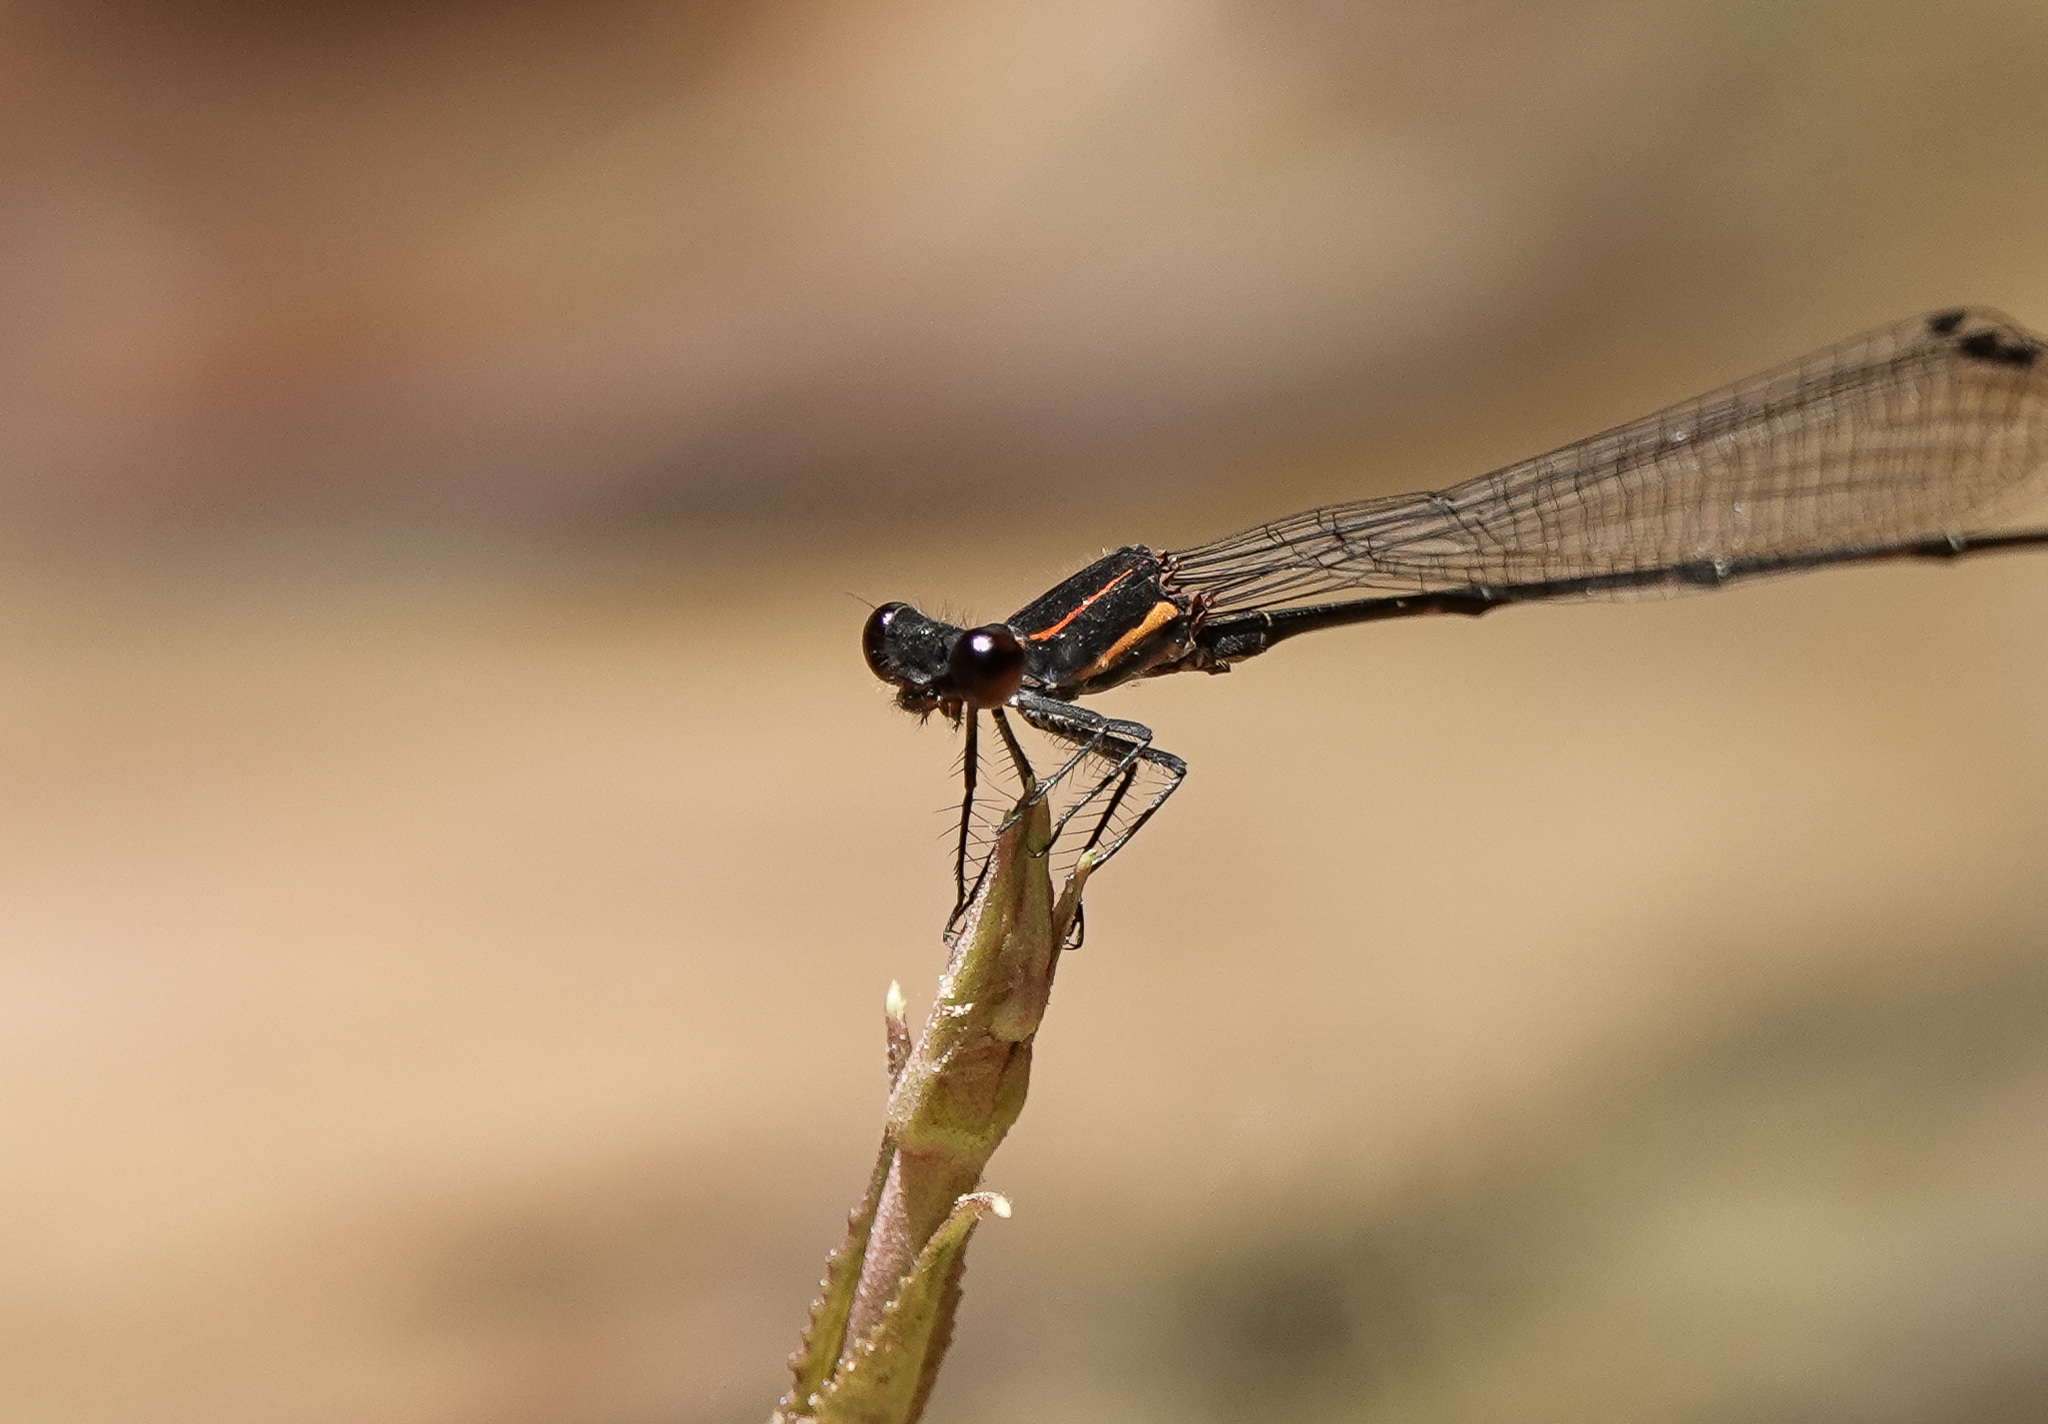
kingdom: Animalia
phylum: Arthropoda
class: Insecta
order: Odonata
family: Platycnemididae
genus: Prodasineura
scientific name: Prodasineura verticalis
